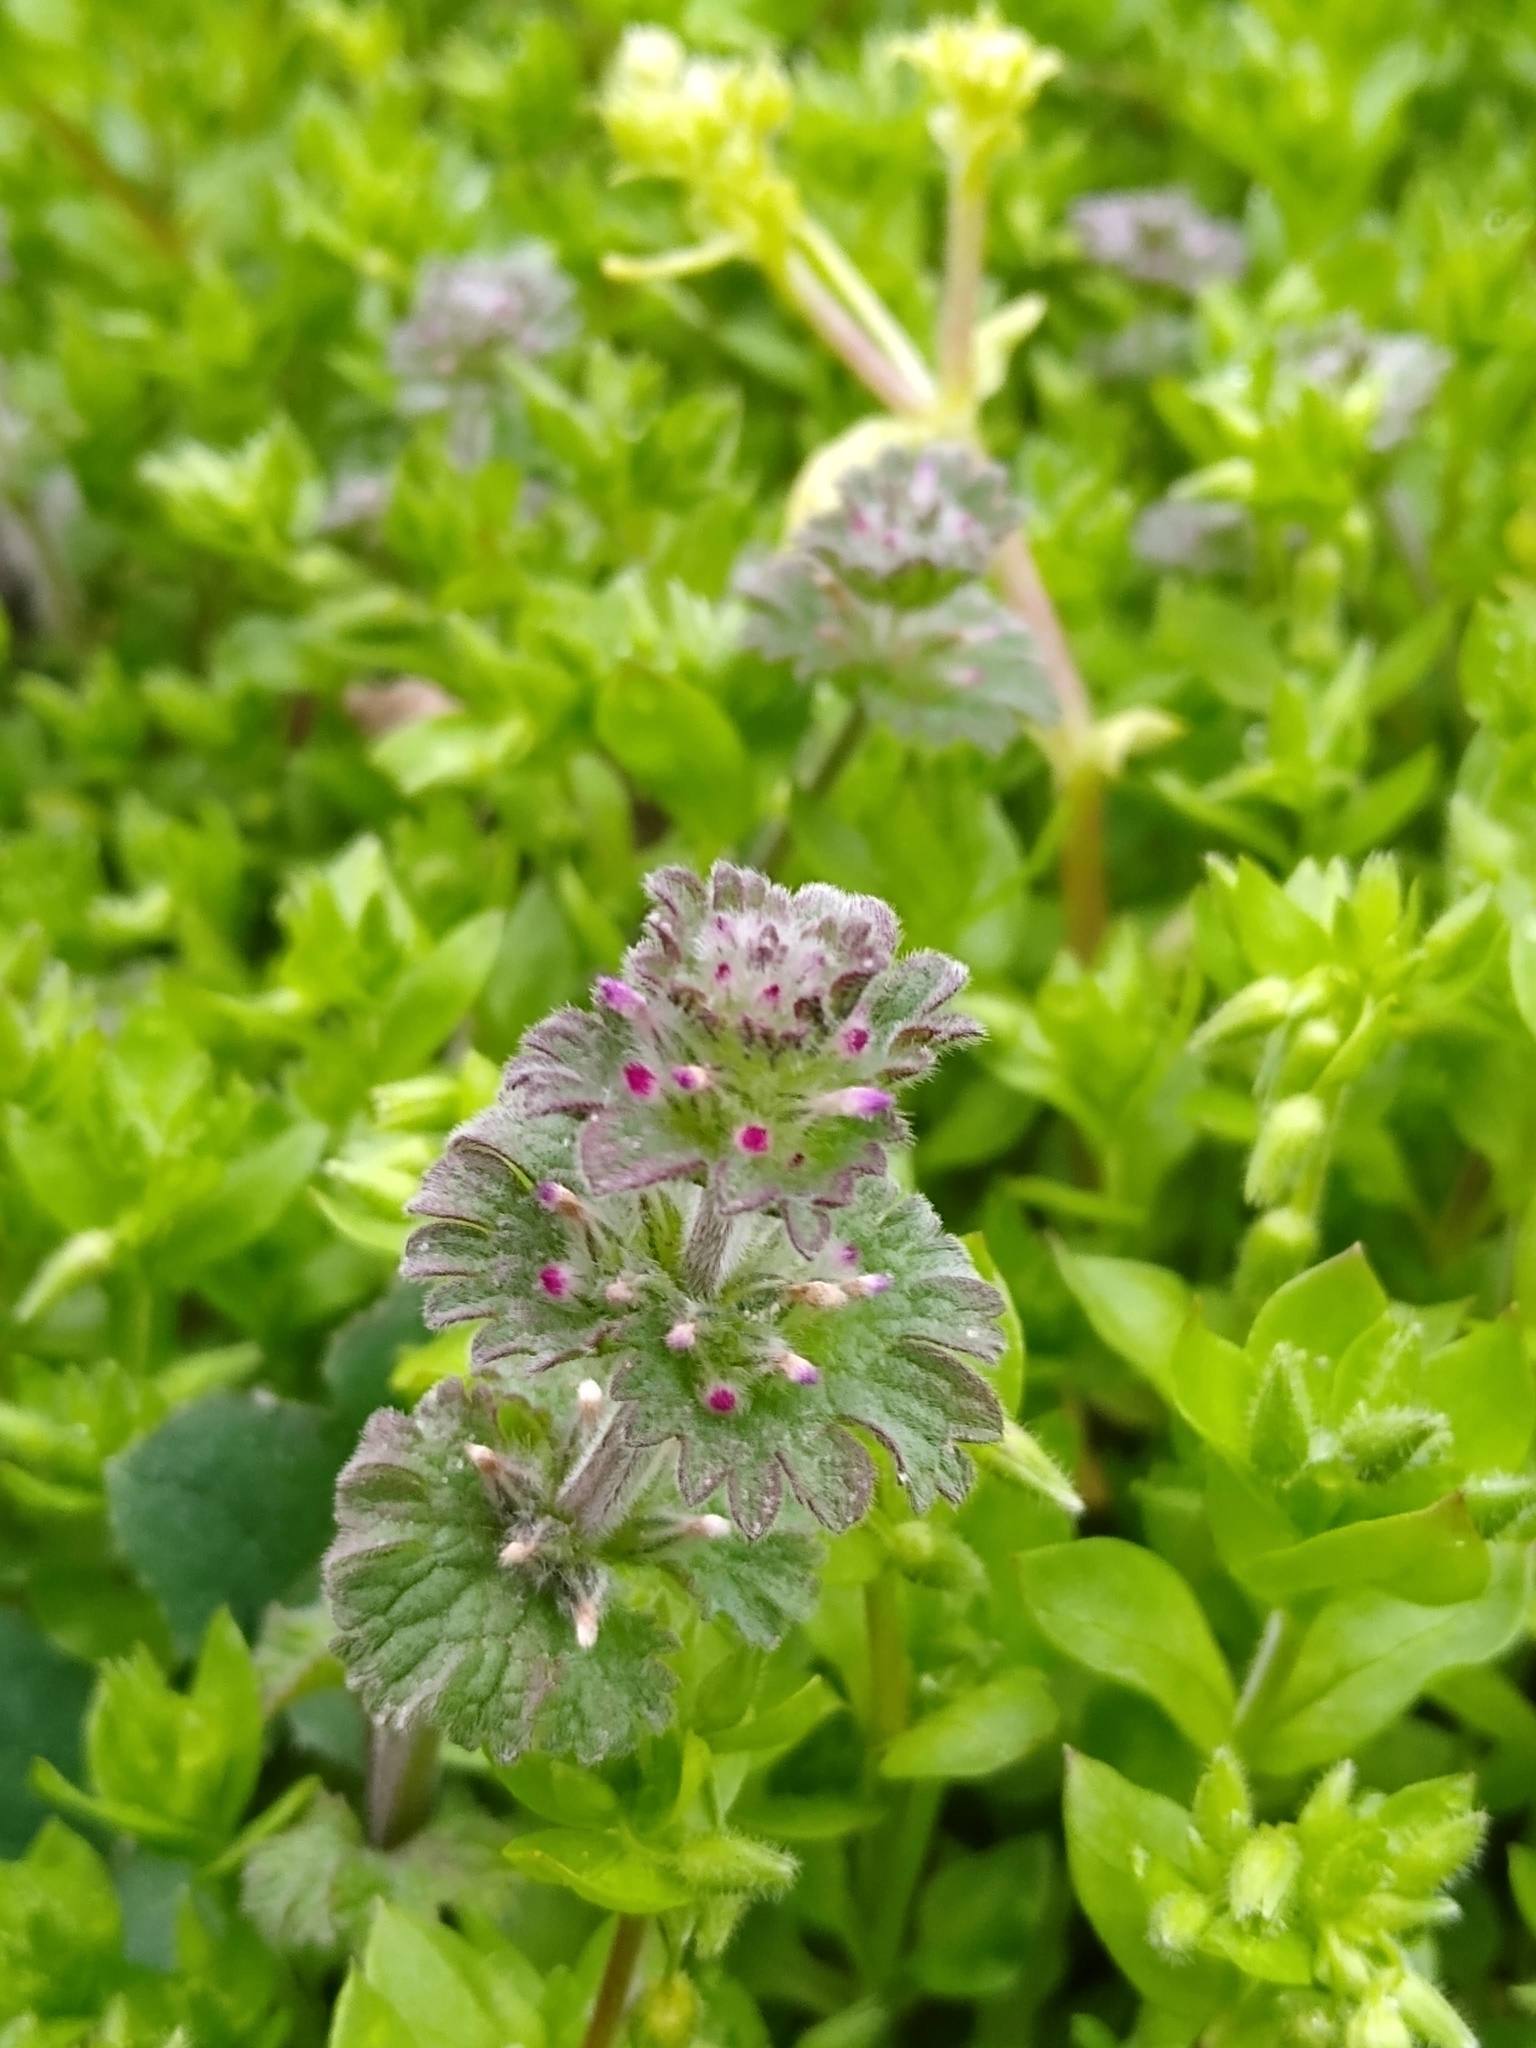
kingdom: Plantae
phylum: Tracheophyta
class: Magnoliopsida
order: Lamiales
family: Lamiaceae
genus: Lamium
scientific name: Lamium amplexicaule
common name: Henbit dead-nettle
